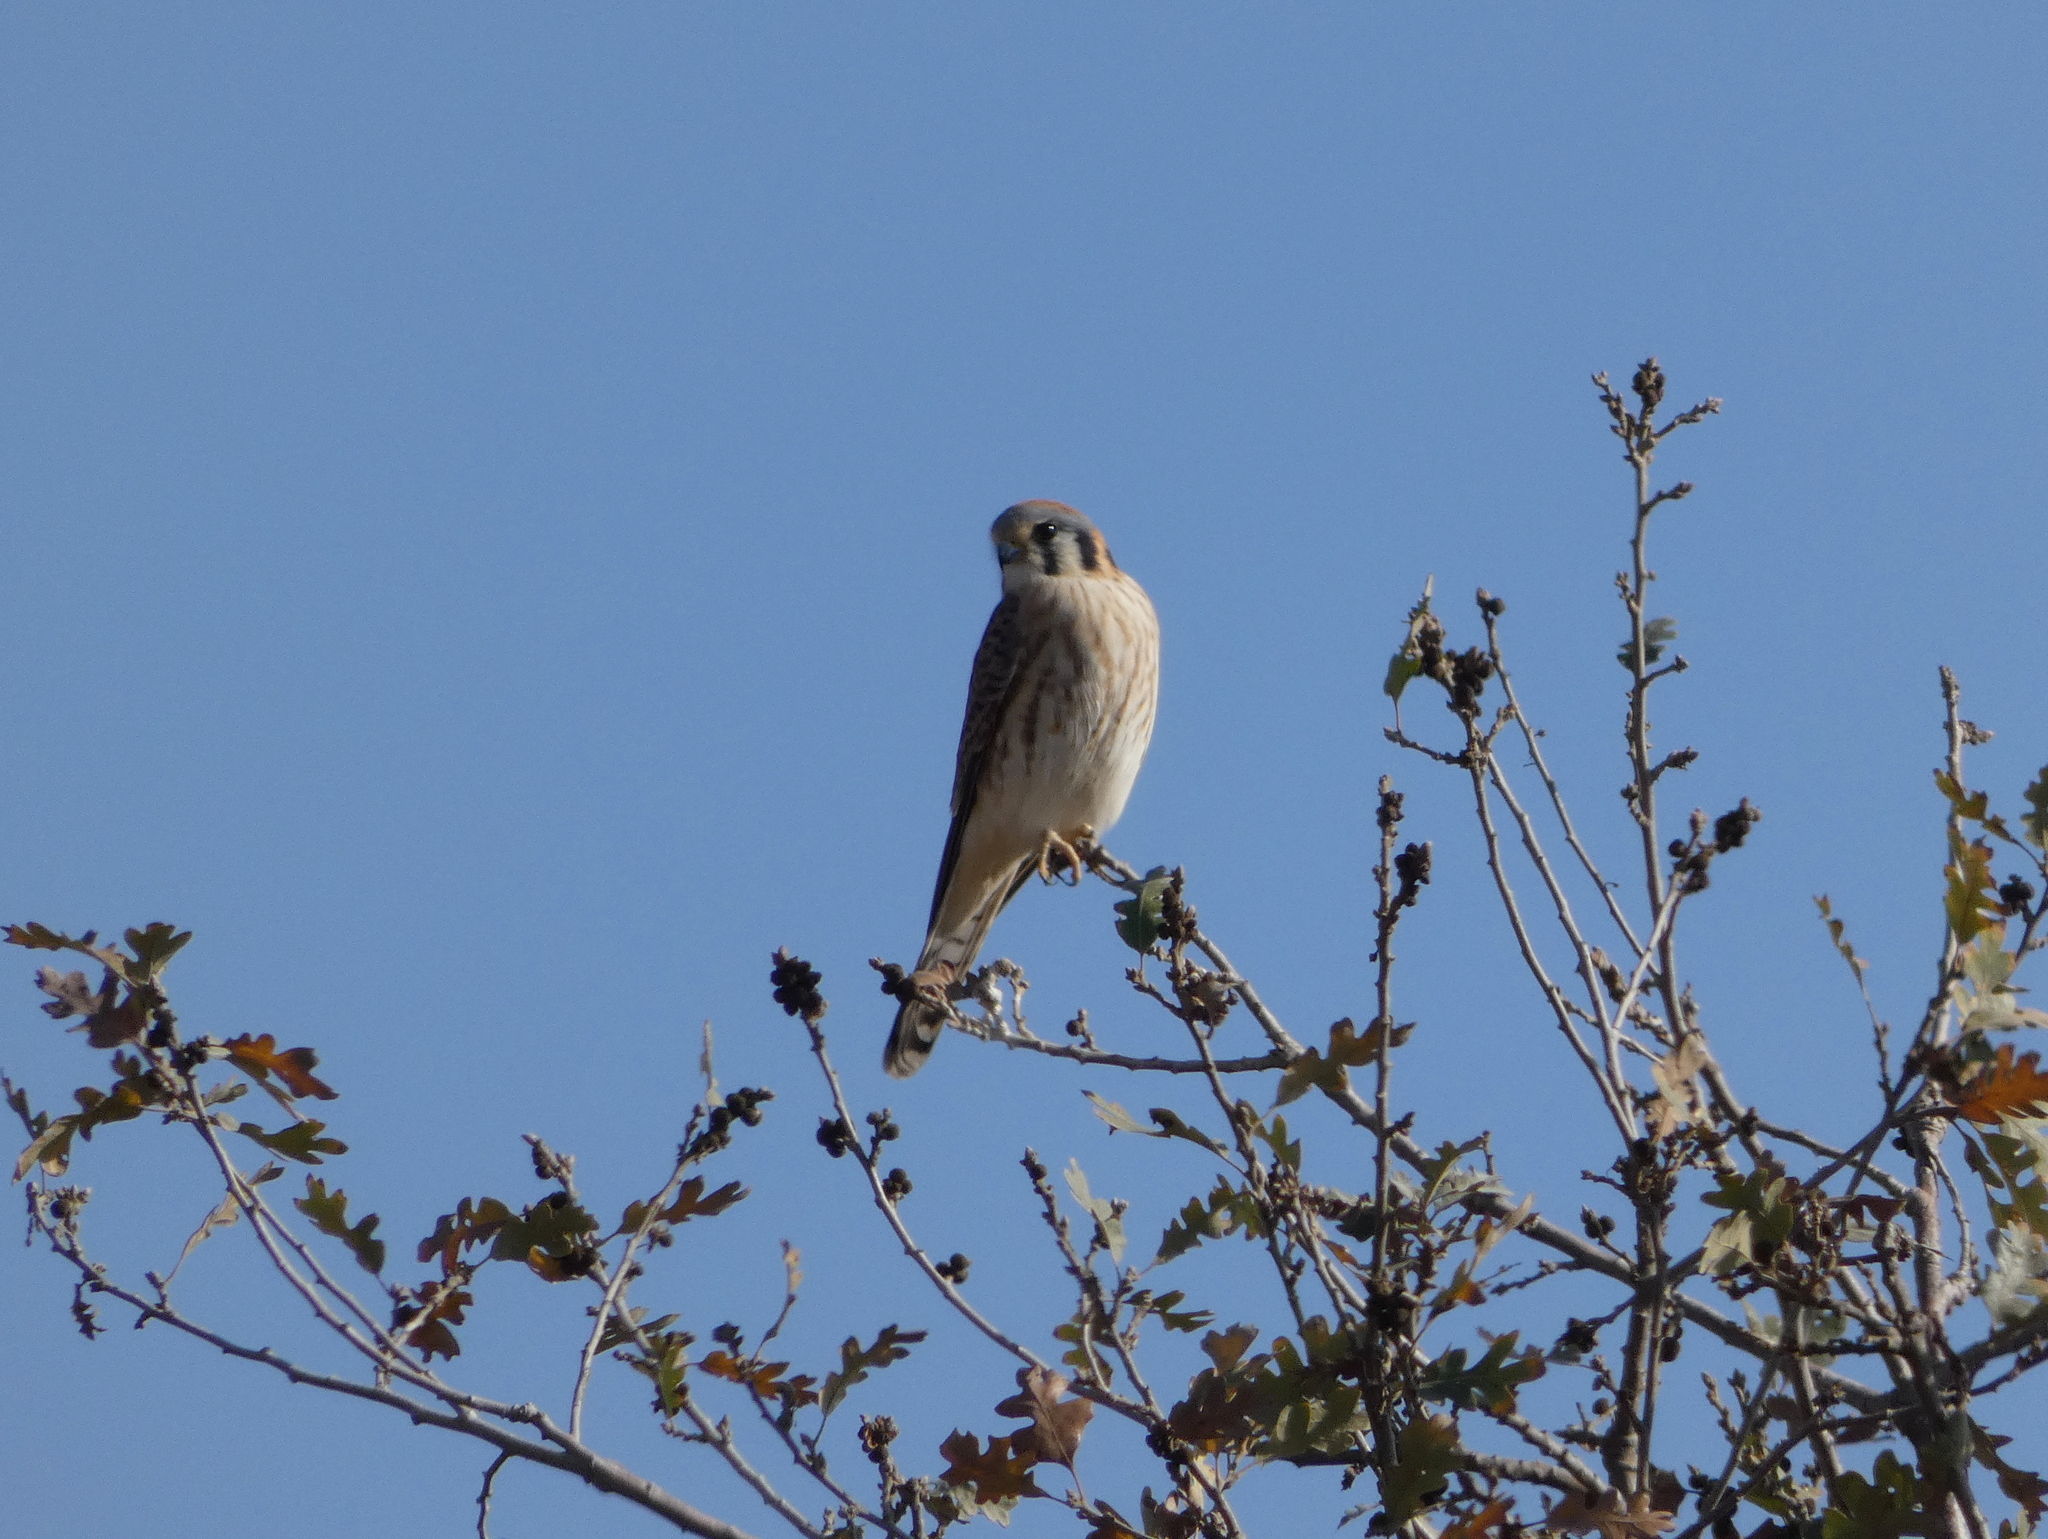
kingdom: Animalia
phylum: Chordata
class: Aves
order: Falconiformes
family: Falconidae
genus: Falco
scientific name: Falco sparverius
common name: American kestrel
